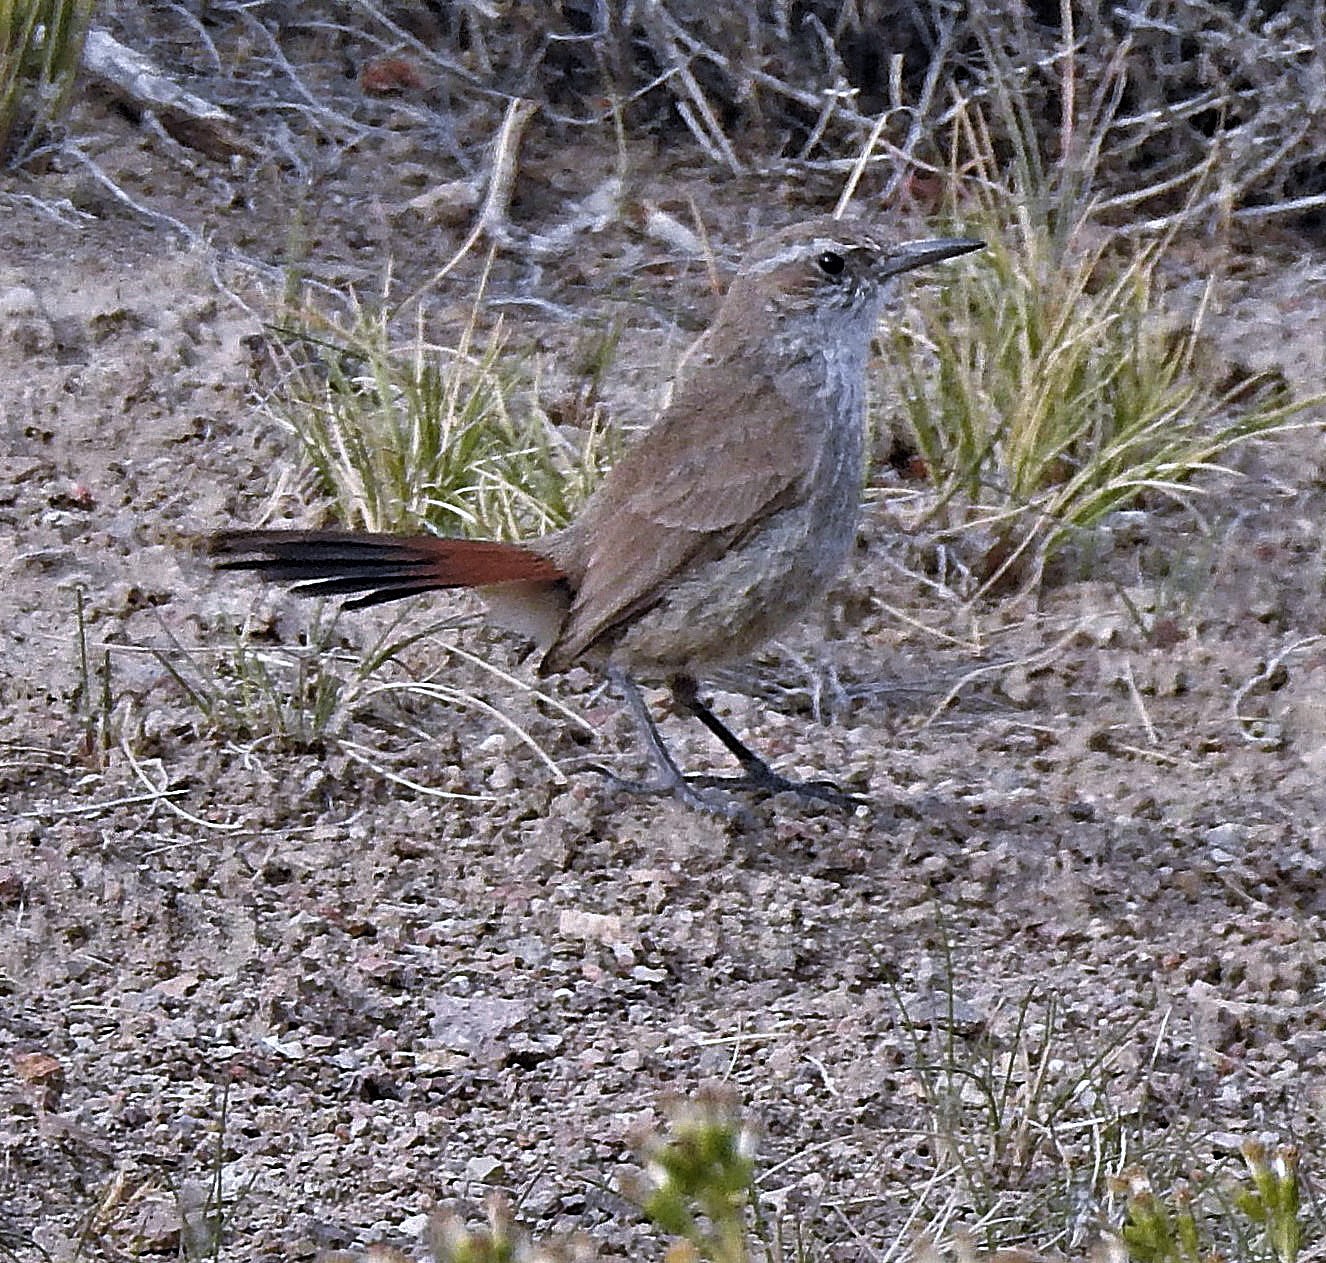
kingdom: Animalia
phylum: Chordata
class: Aves
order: Passeriformes
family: Furnariidae
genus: Eremobius
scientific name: Eremobius phoenicurus
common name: Band-tailed eremobius
